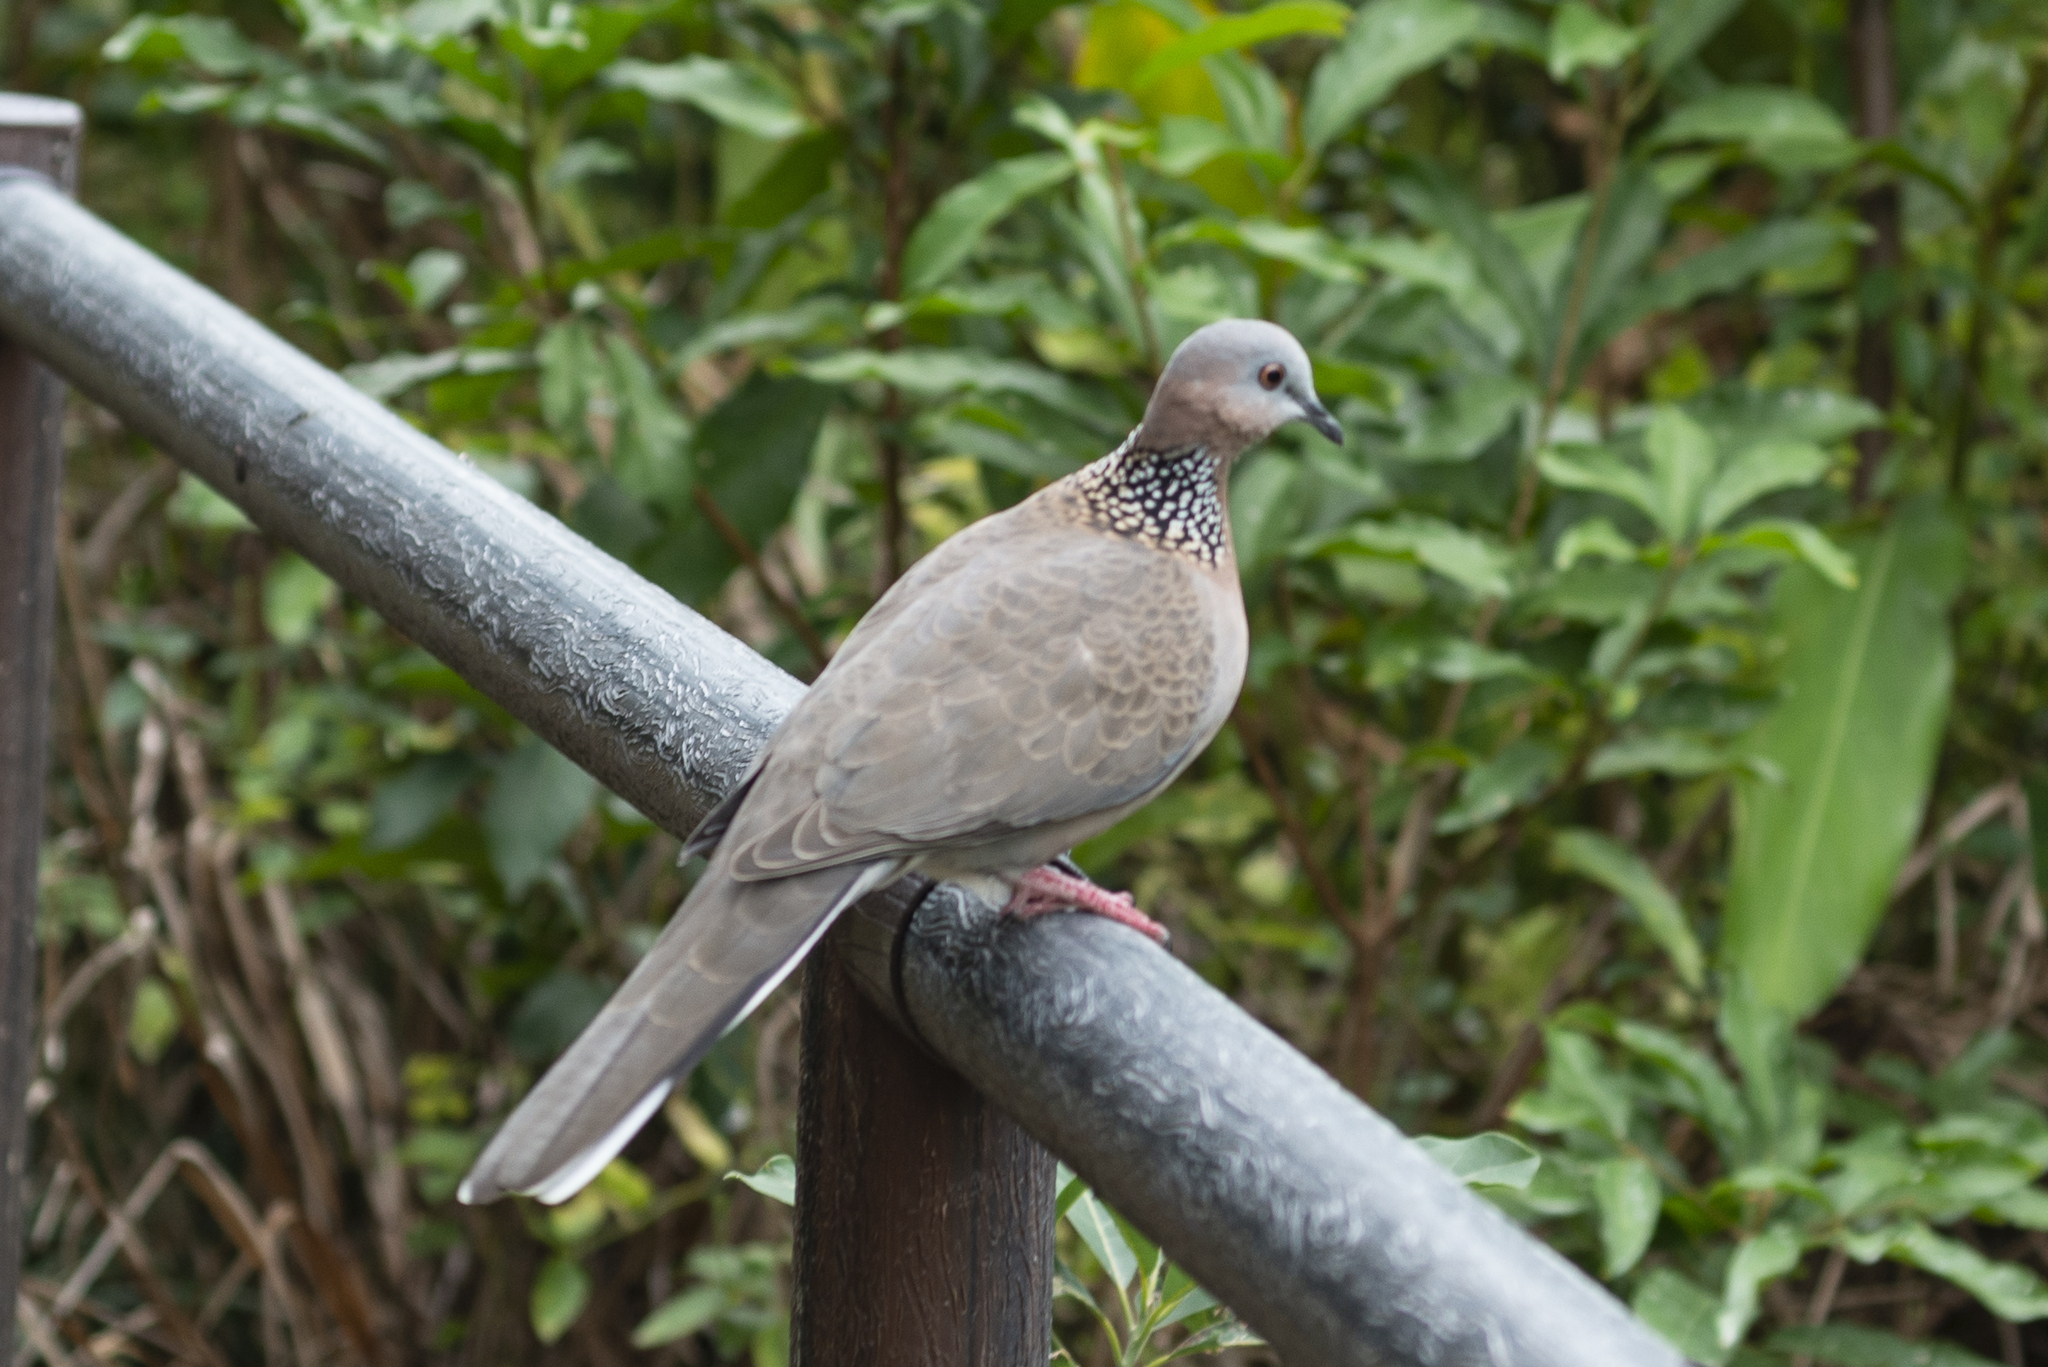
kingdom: Animalia
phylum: Chordata
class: Aves
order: Columbiformes
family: Columbidae
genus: Spilopelia
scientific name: Spilopelia chinensis
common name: Spotted dove
